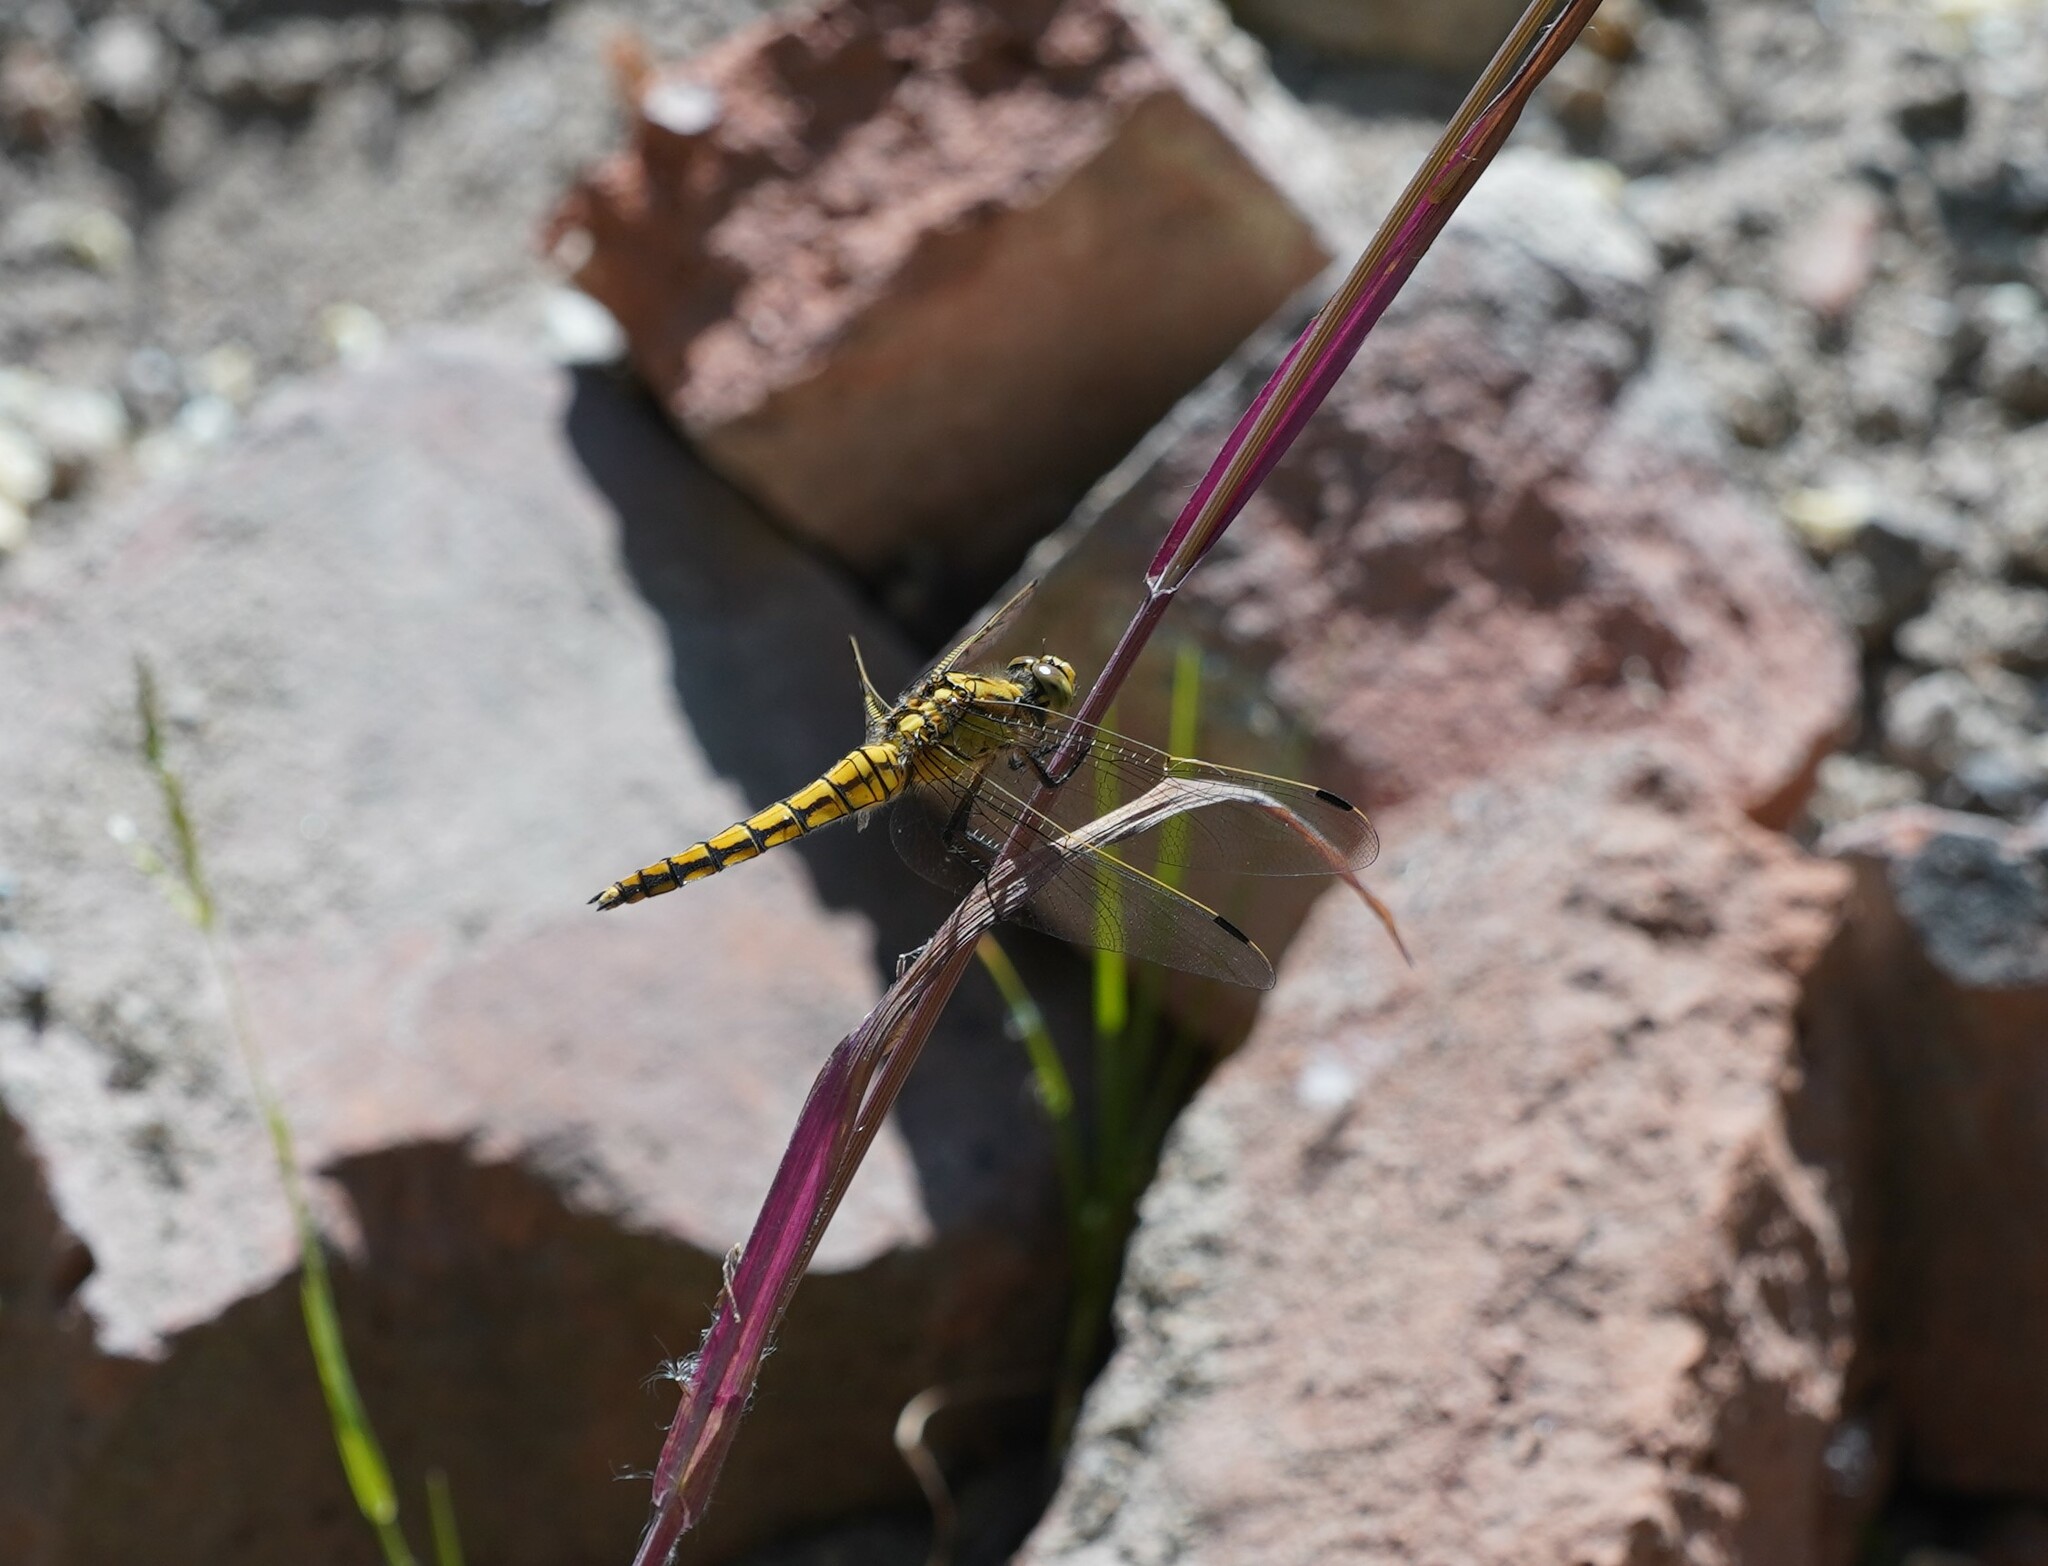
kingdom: Animalia
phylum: Arthropoda
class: Insecta
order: Odonata
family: Libellulidae
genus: Orthetrum
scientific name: Orthetrum cancellatum
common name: Black-tailed skimmer
